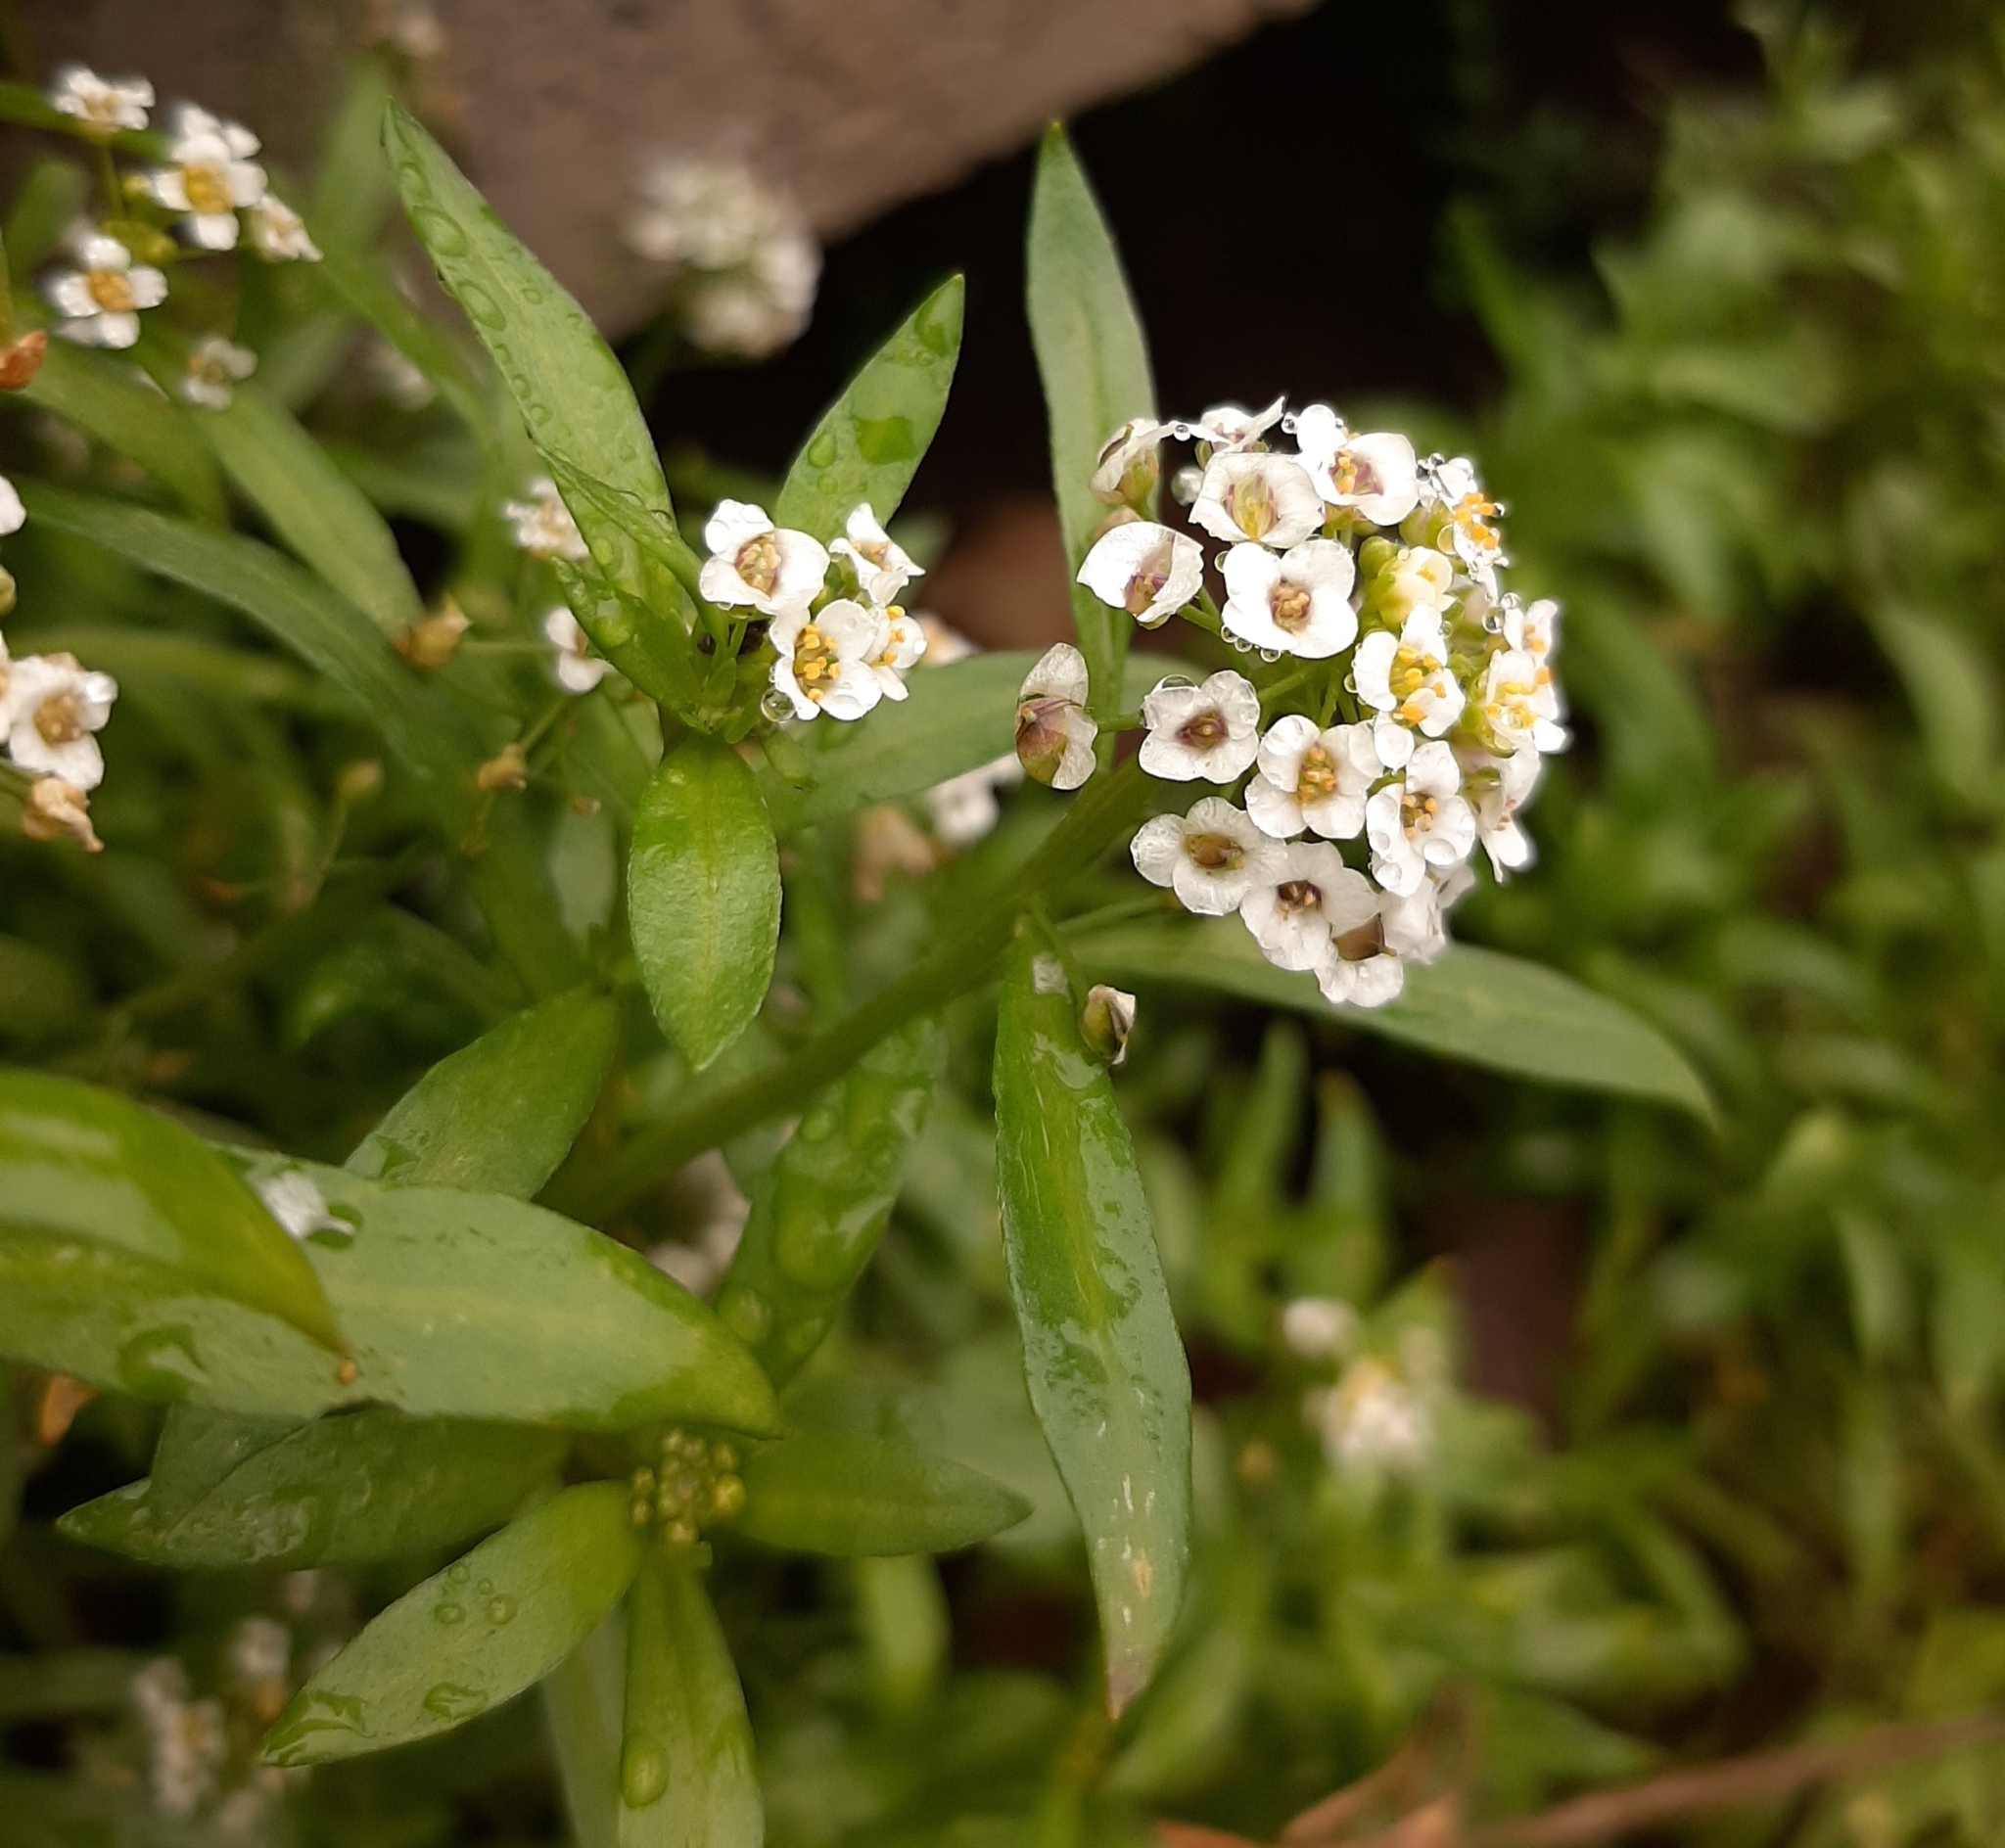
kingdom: Plantae
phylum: Tracheophyta
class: Magnoliopsida
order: Brassicales
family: Brassicaceae
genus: Lobularia
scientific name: Lobularia maritima
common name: Sweet alison
